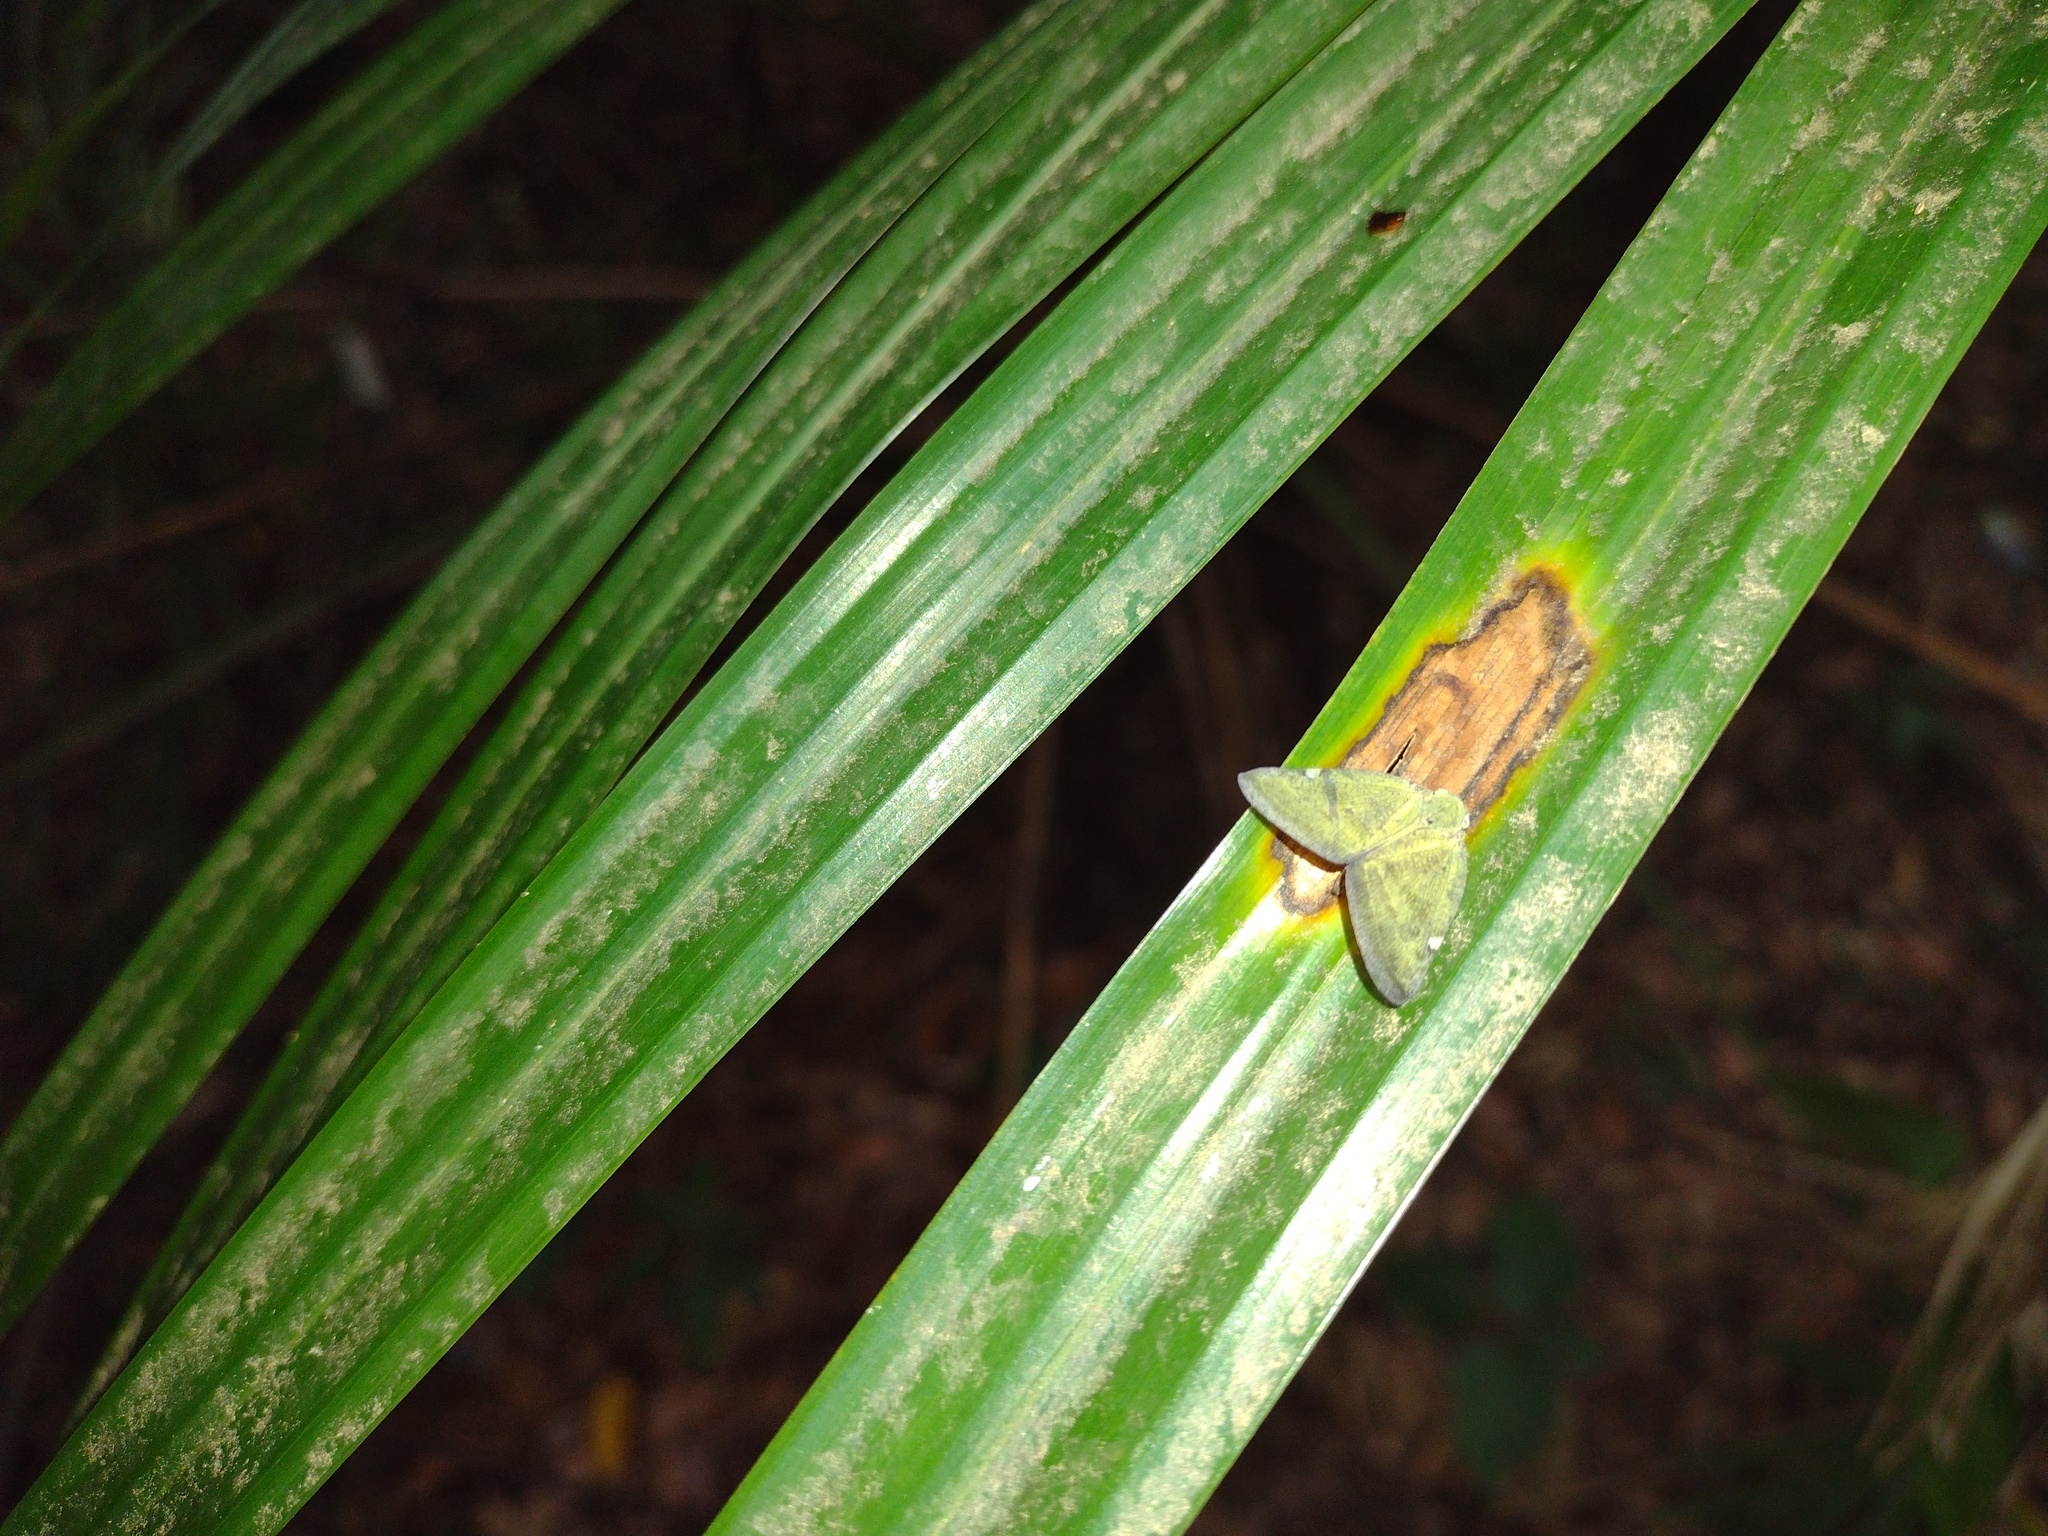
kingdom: Animalia
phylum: Arthropoda
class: Insecta
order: Hemiptera
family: Ricaniidae
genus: Pochazia
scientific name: Pochazia albomaculata
